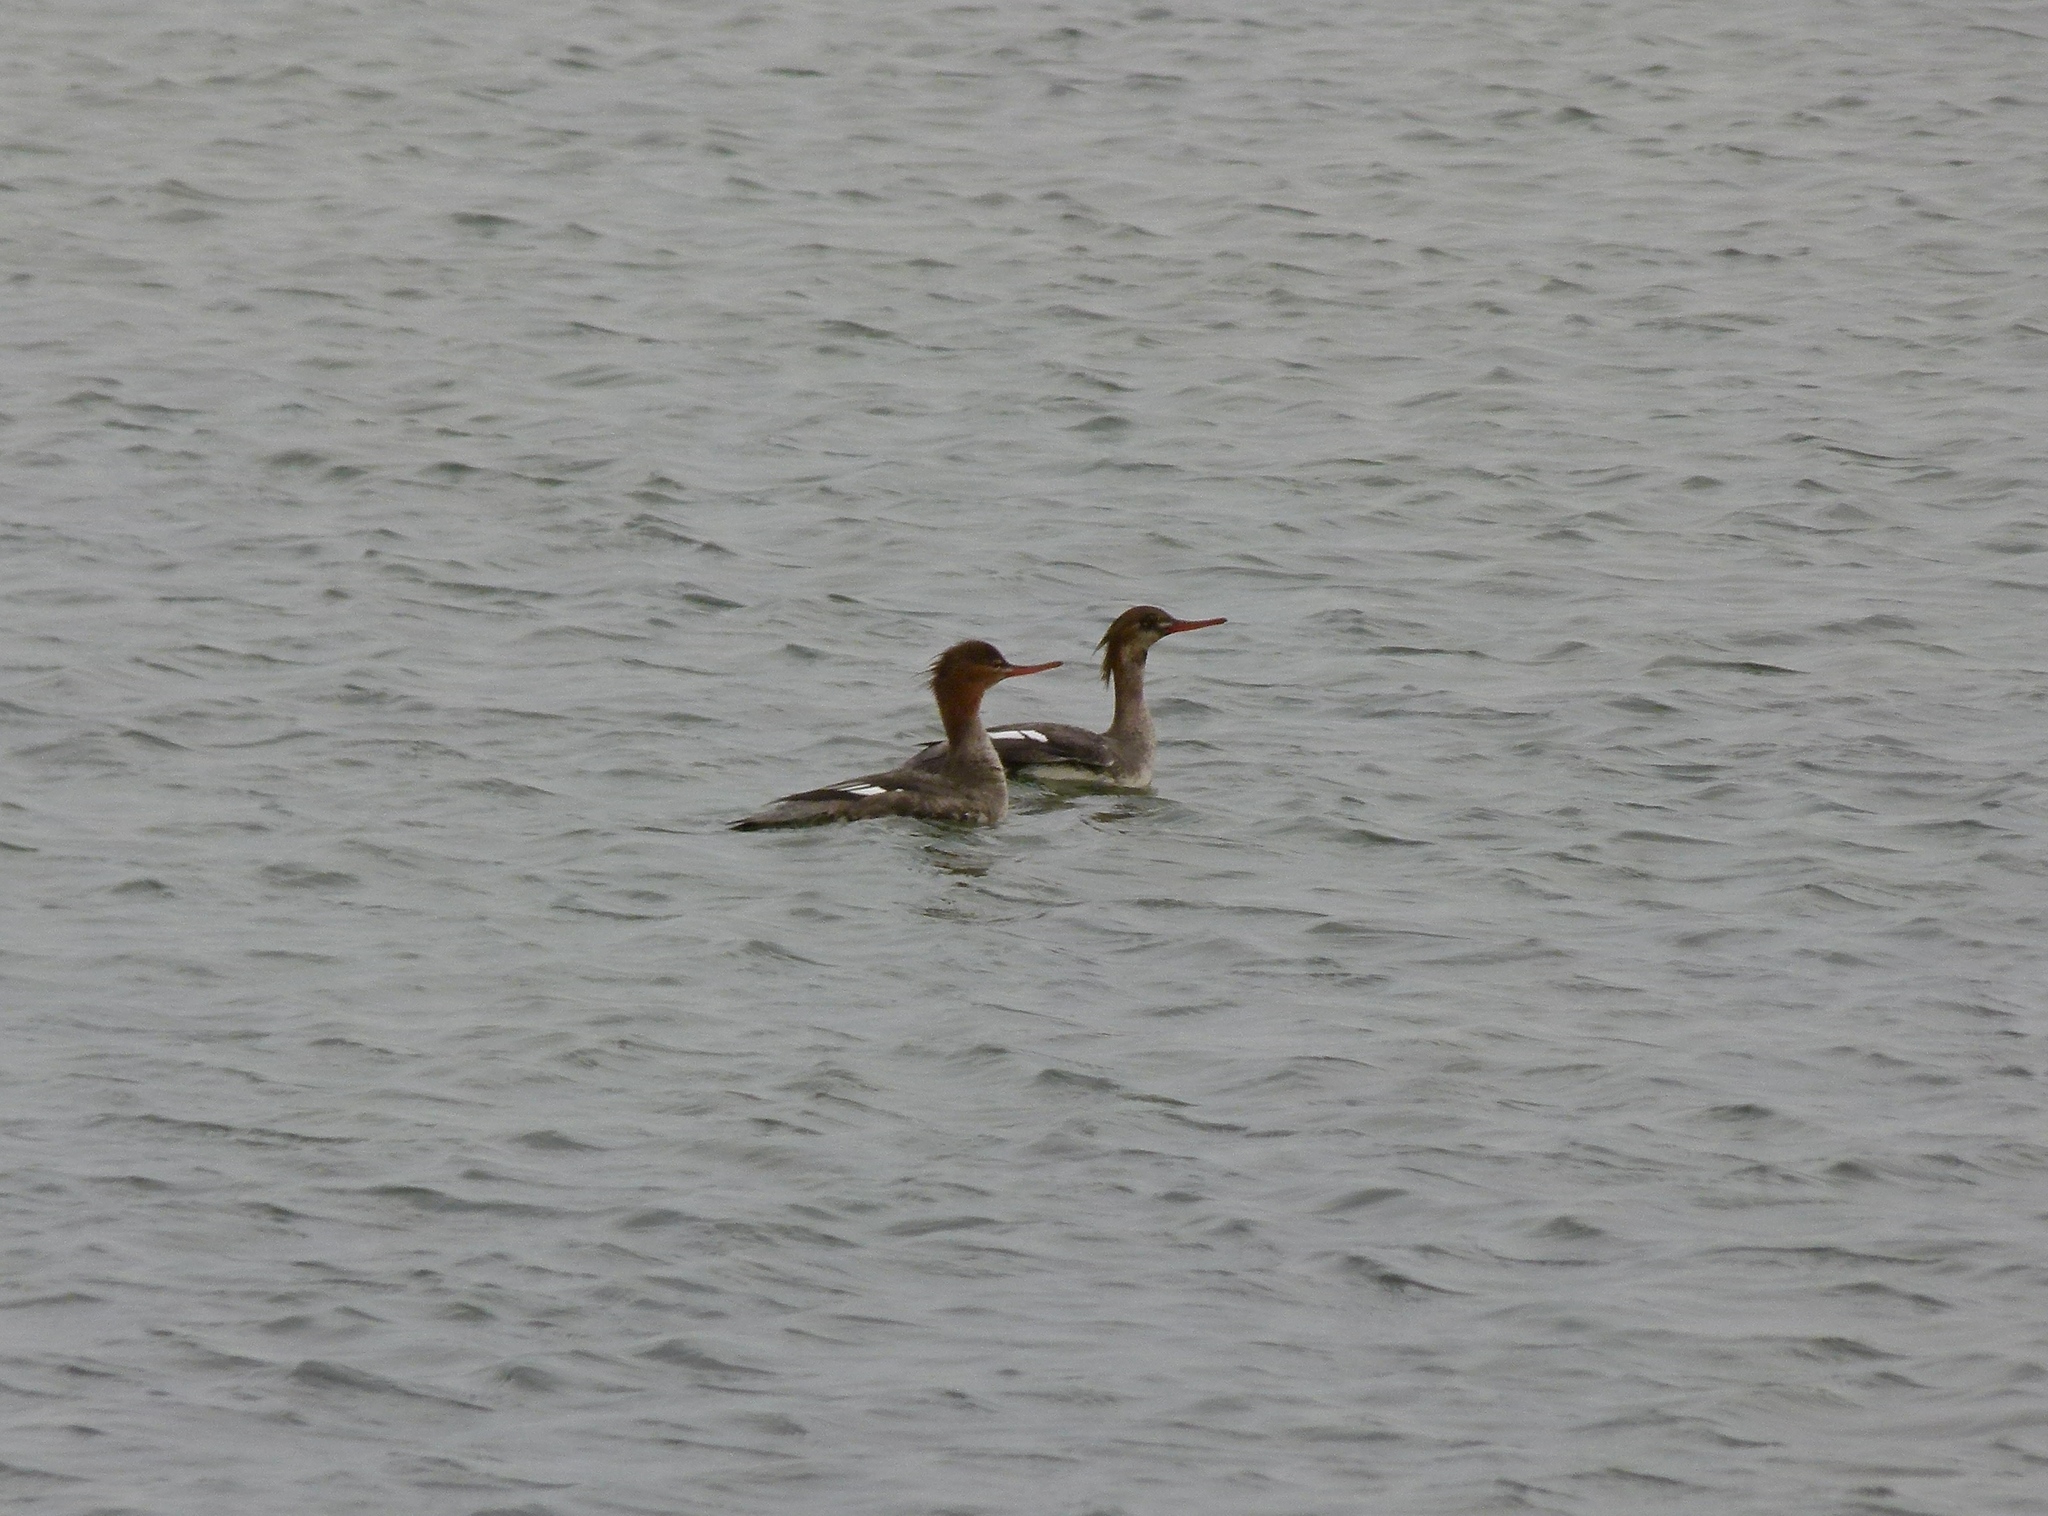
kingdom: Animalia
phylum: Chordata
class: Aves
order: Anseriformes
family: Anatidae
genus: Mergus
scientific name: Mergus serrator
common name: Red-breasted merganser
